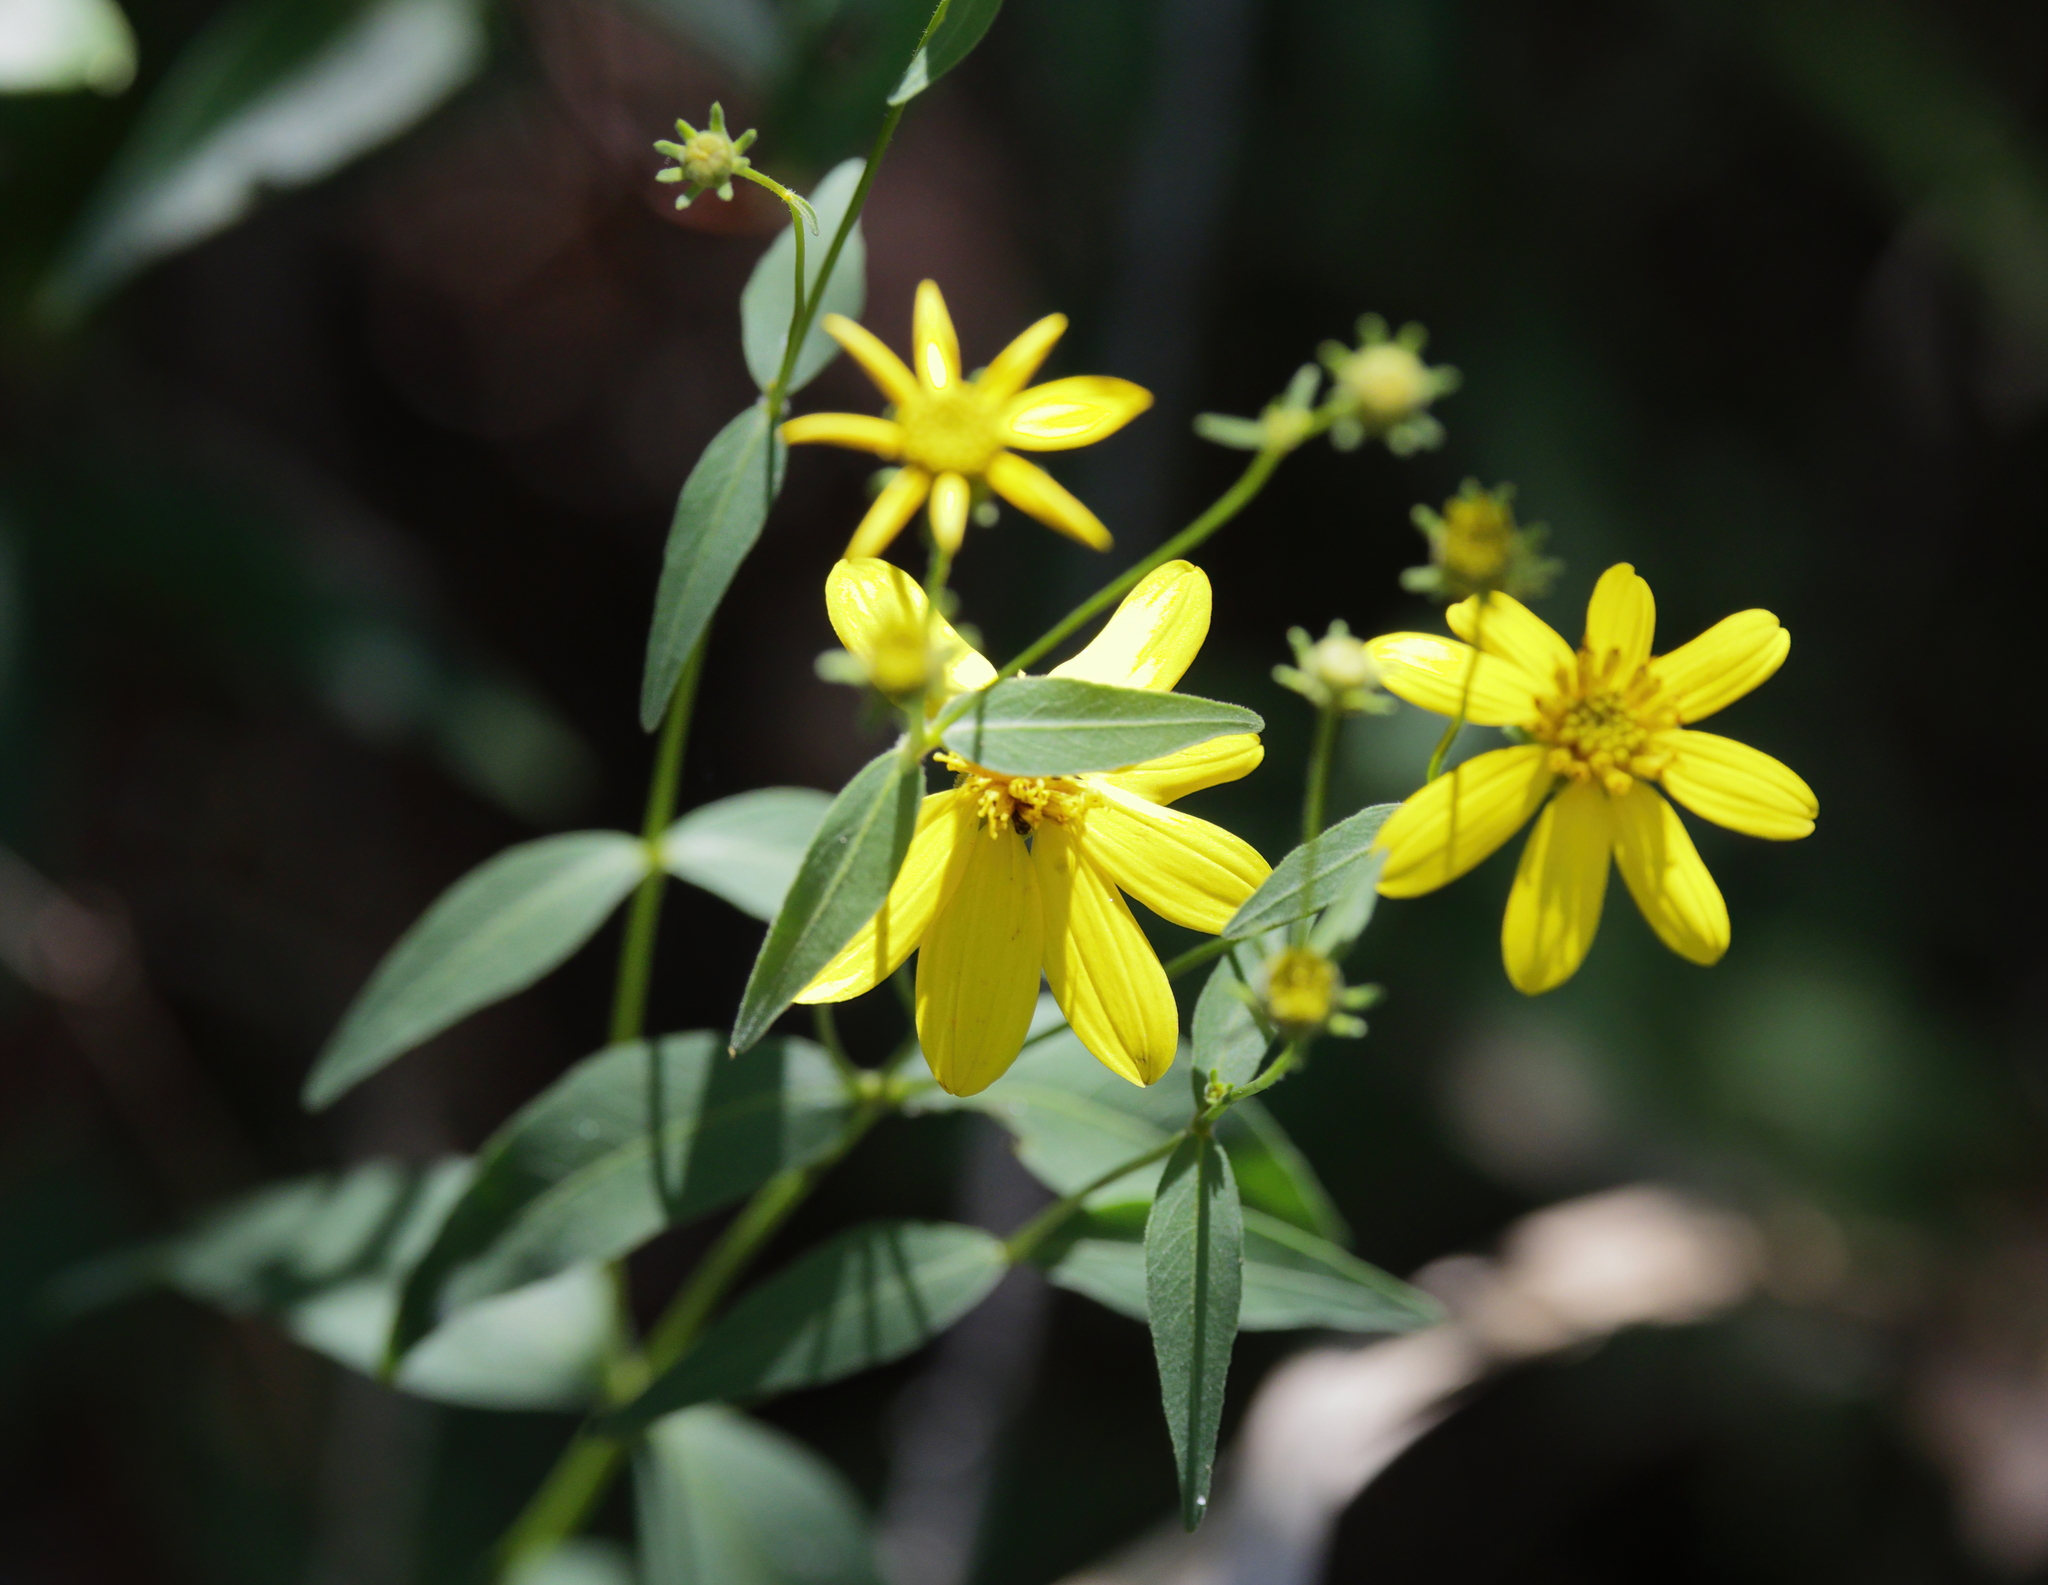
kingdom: Plantae
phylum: Tracheophyta
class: Magnoliopsida
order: Asterales
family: Asteraceae
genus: Coreopsis
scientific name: Coreopsis major
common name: Forest tickseed
